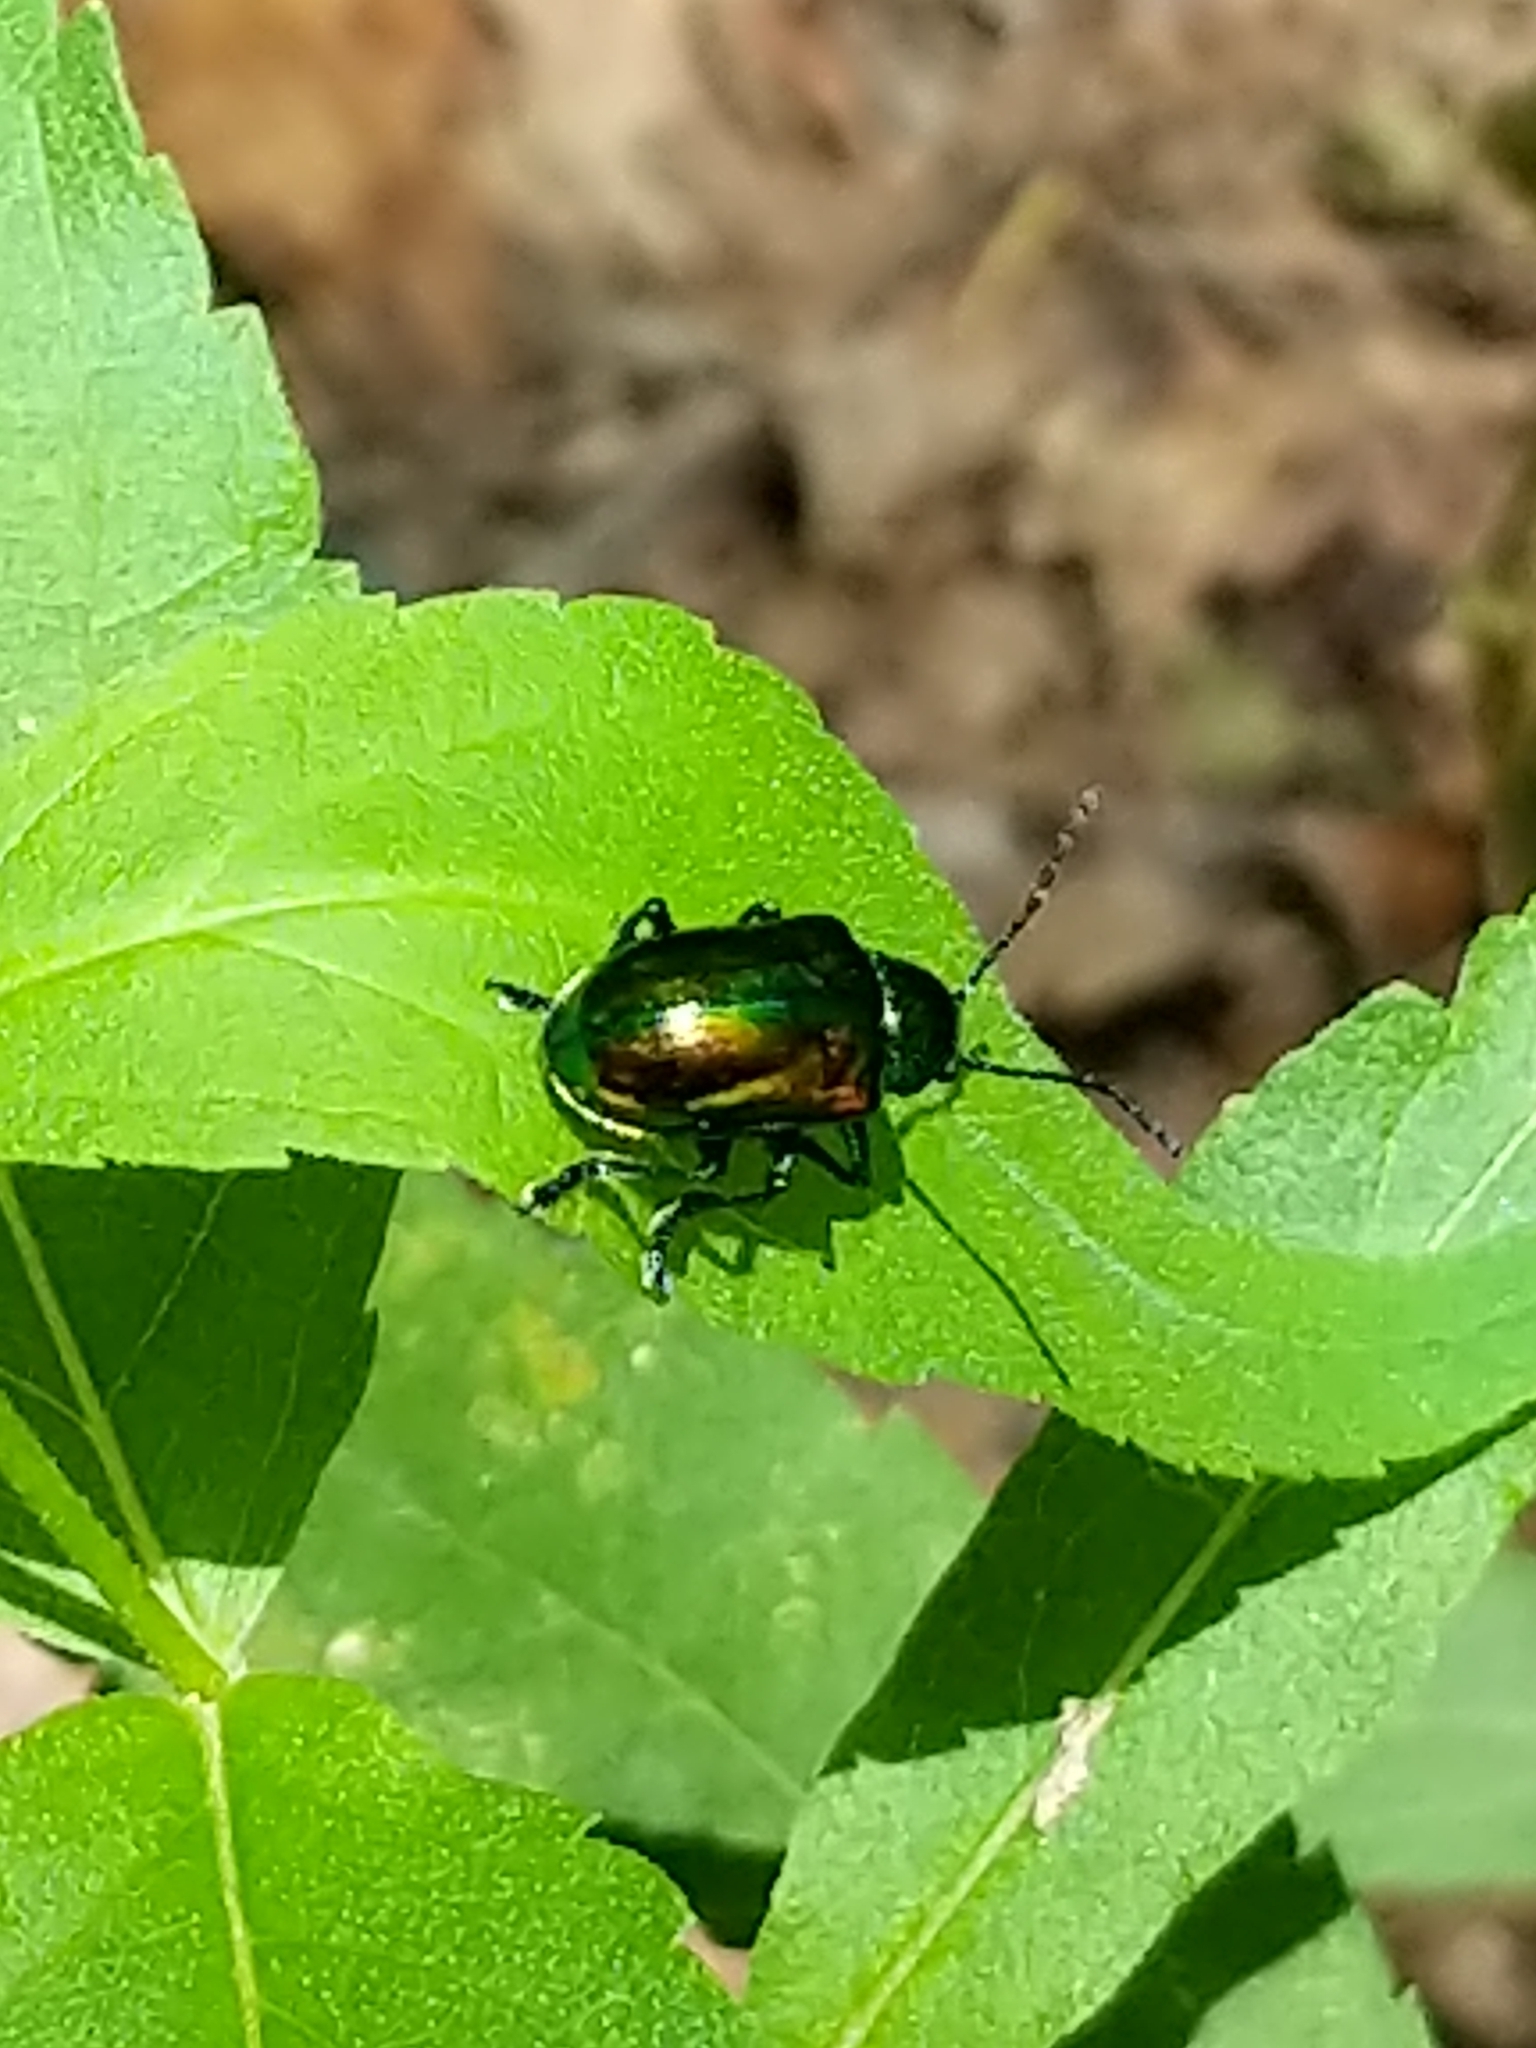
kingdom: Animalia
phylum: Arthropoda
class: Insecta
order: Coleoptera
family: Chrysomelidae
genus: Chrysochus
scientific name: Chrysochus auratus
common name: Dogbane leaf beetle
